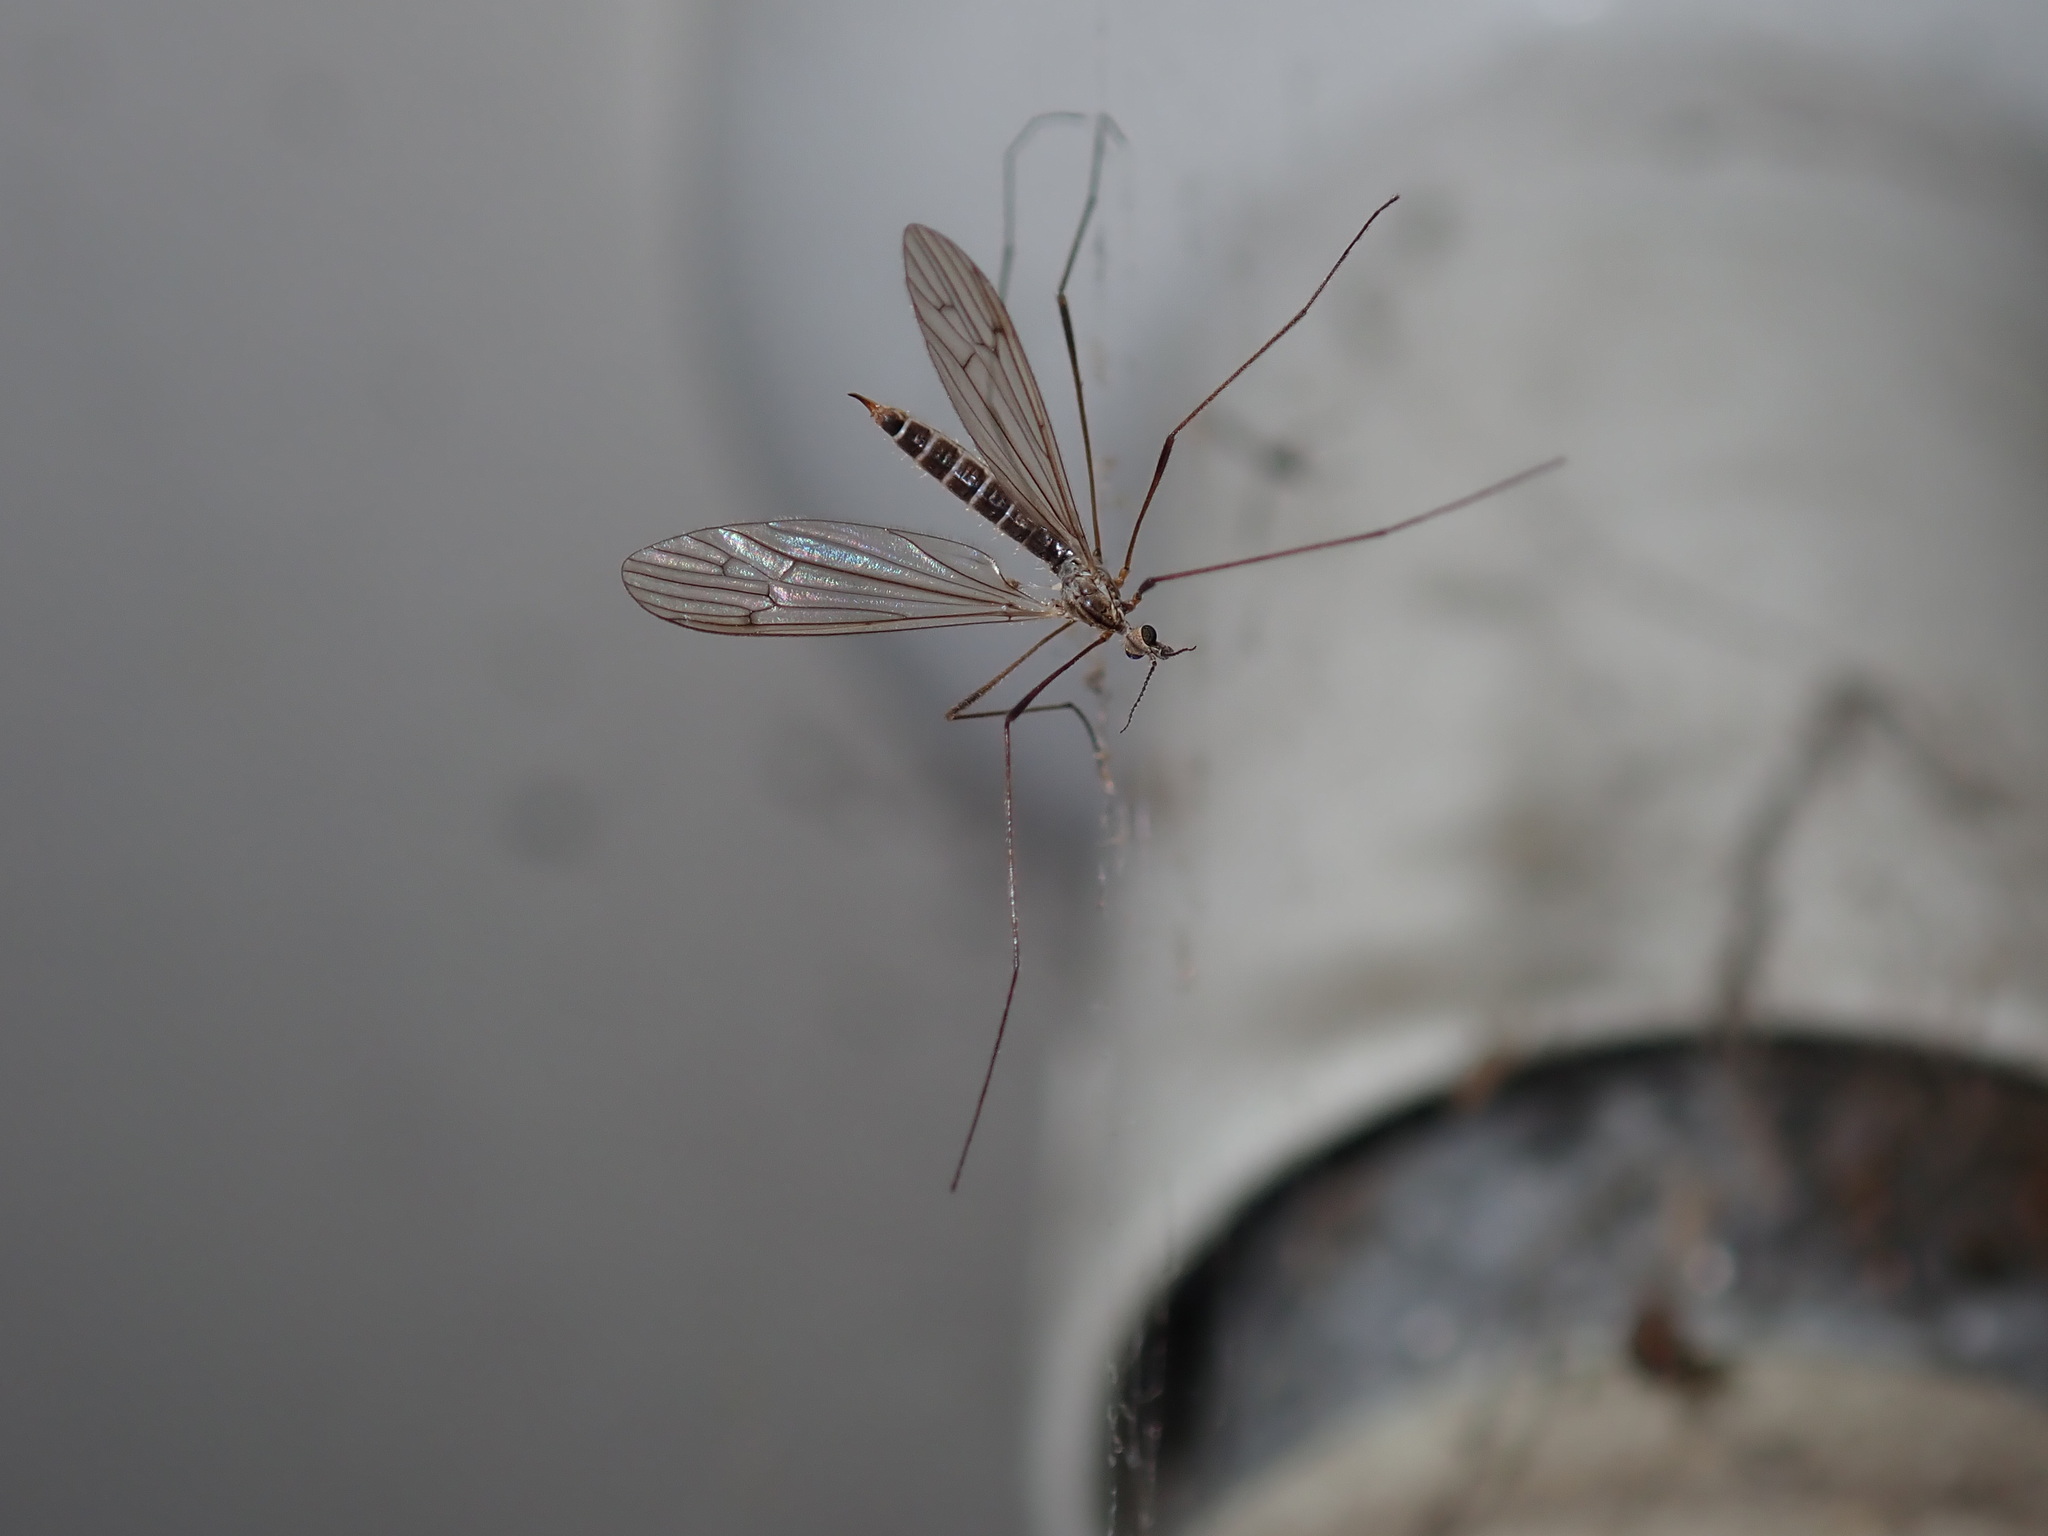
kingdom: Animalia
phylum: Arthropoda
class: Insecta
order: Diptera
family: Limoniidae
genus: Symplecta
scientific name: Symplecta pilipes
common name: Crane fly
